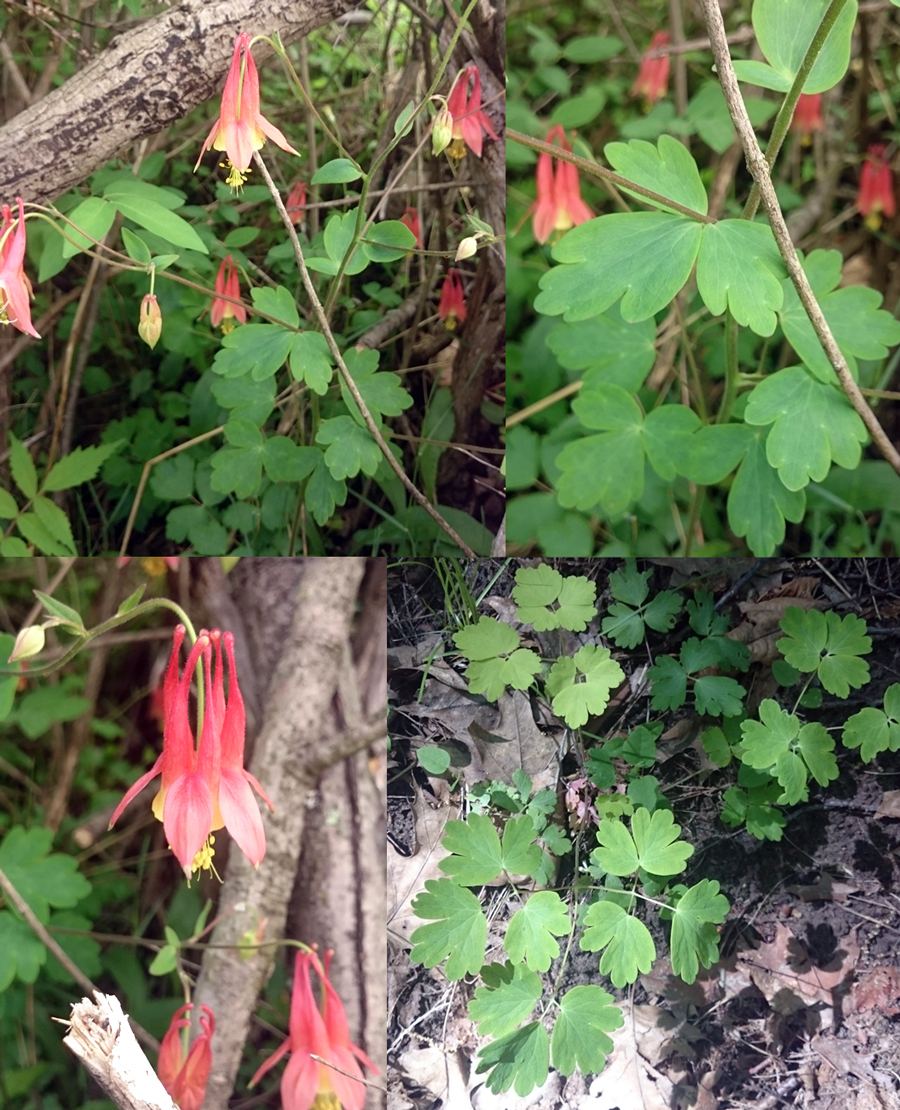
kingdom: Plantae
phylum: Tracheophyta
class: Magnoliopsida
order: Ranunculales
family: Ranunculaceae
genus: Aquilegia
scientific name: Aquilegia canadensis
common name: American columbine
